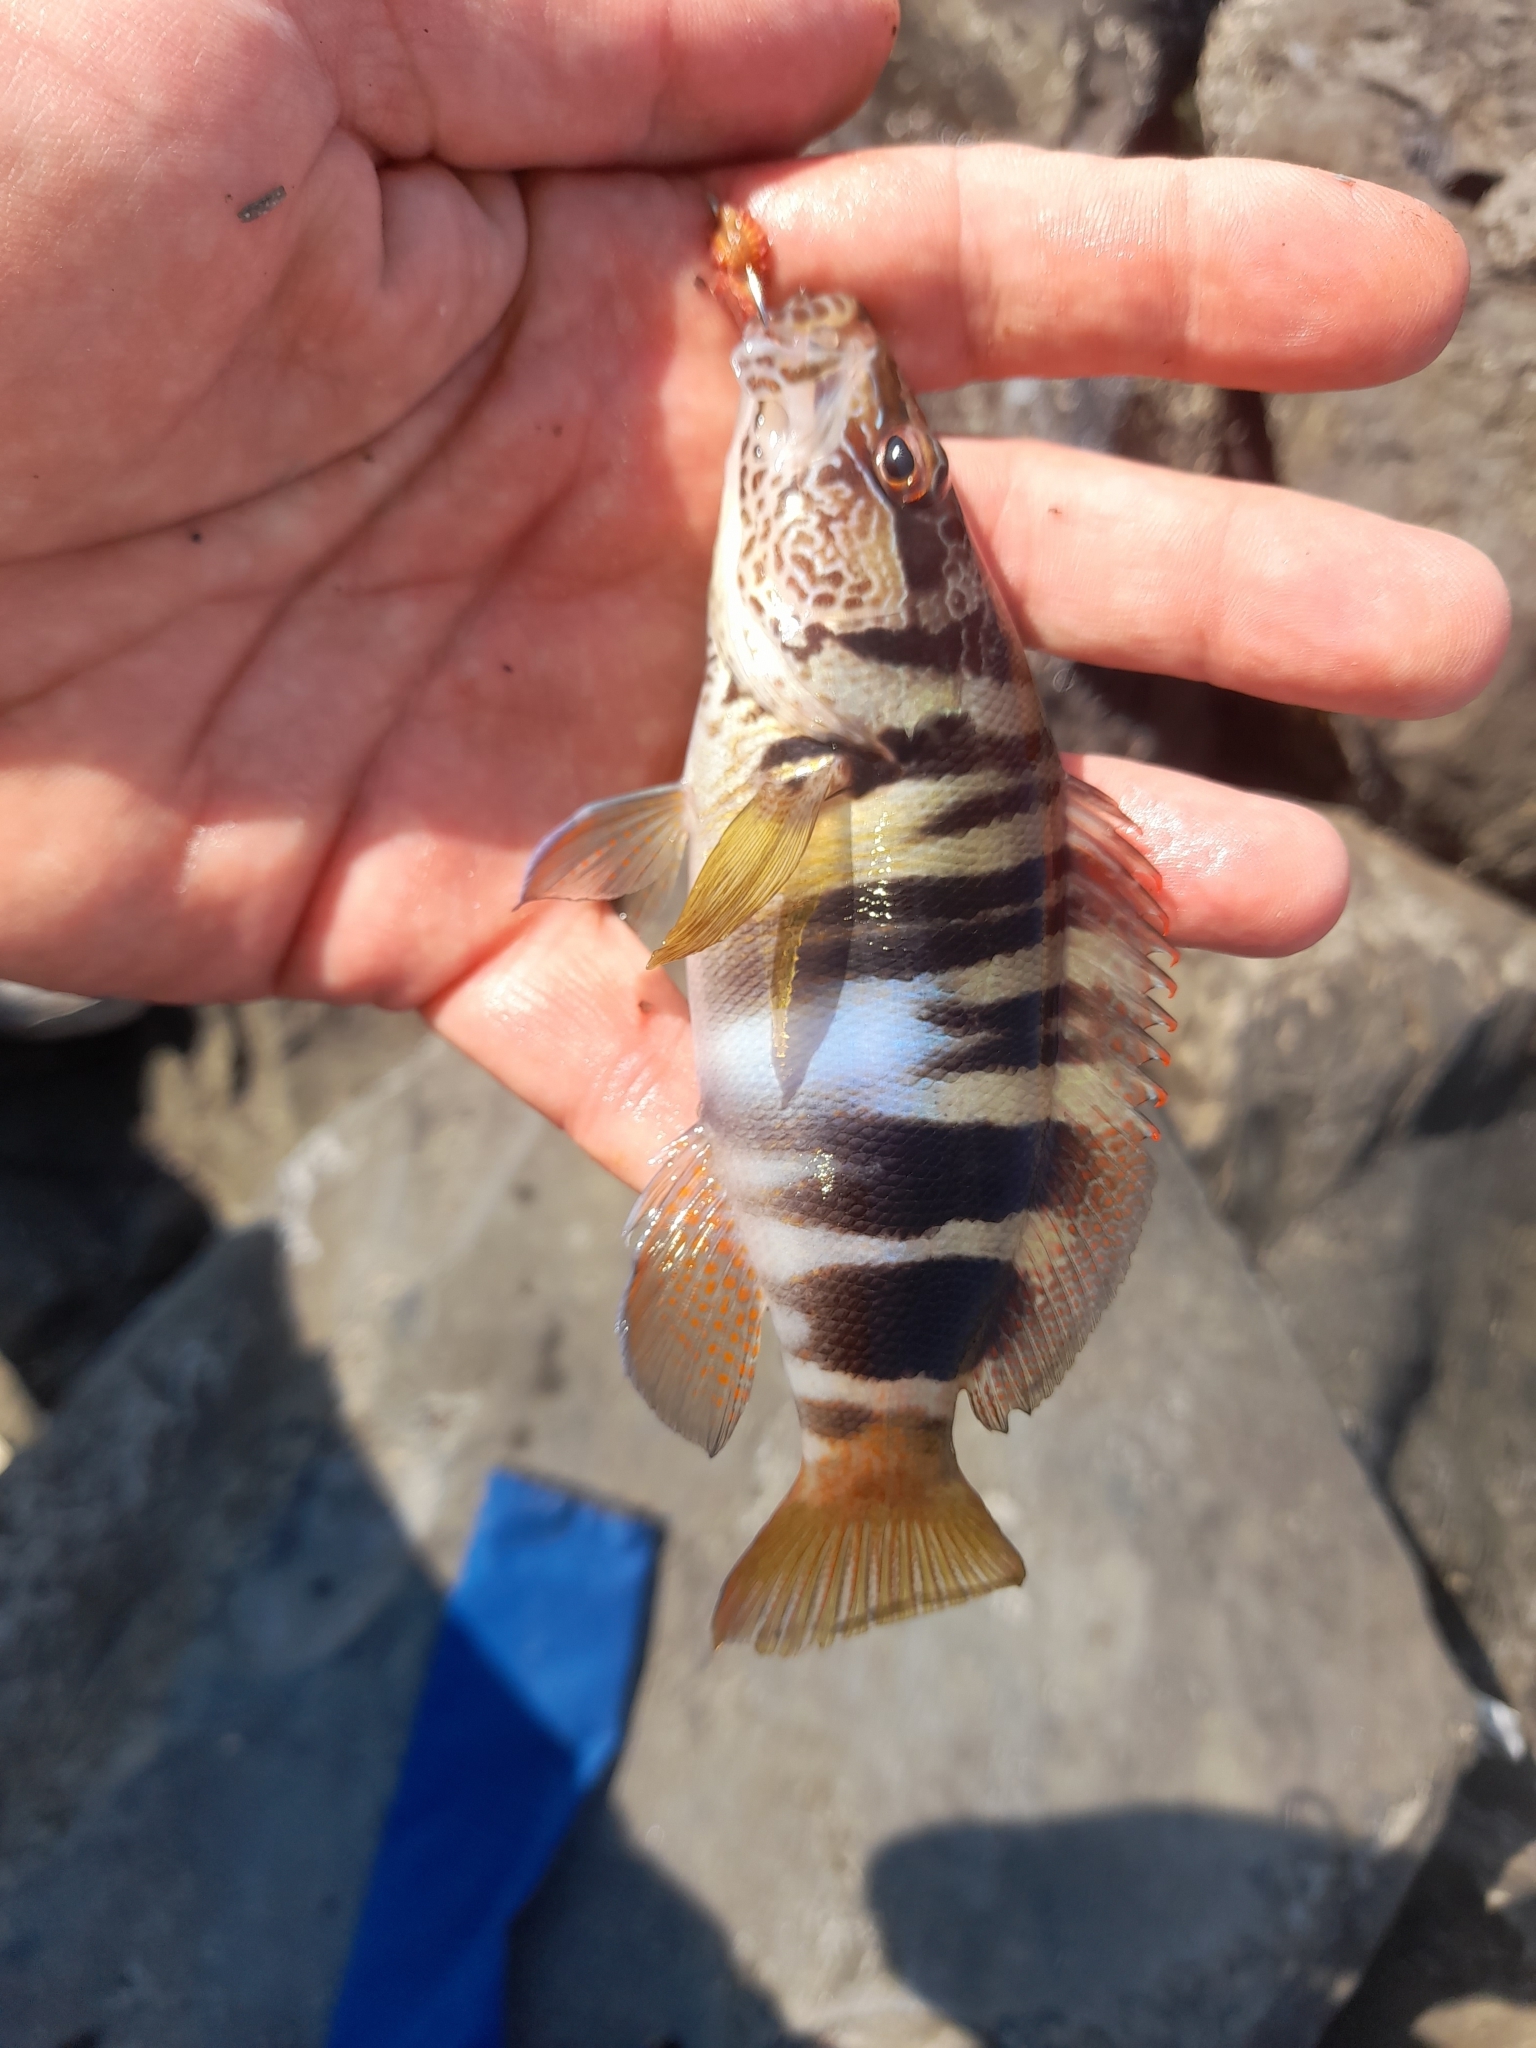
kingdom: Animalia
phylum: Chordata
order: Perciformes
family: Serranidae
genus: Serranus
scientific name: Serranus scriba
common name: Painted comber
